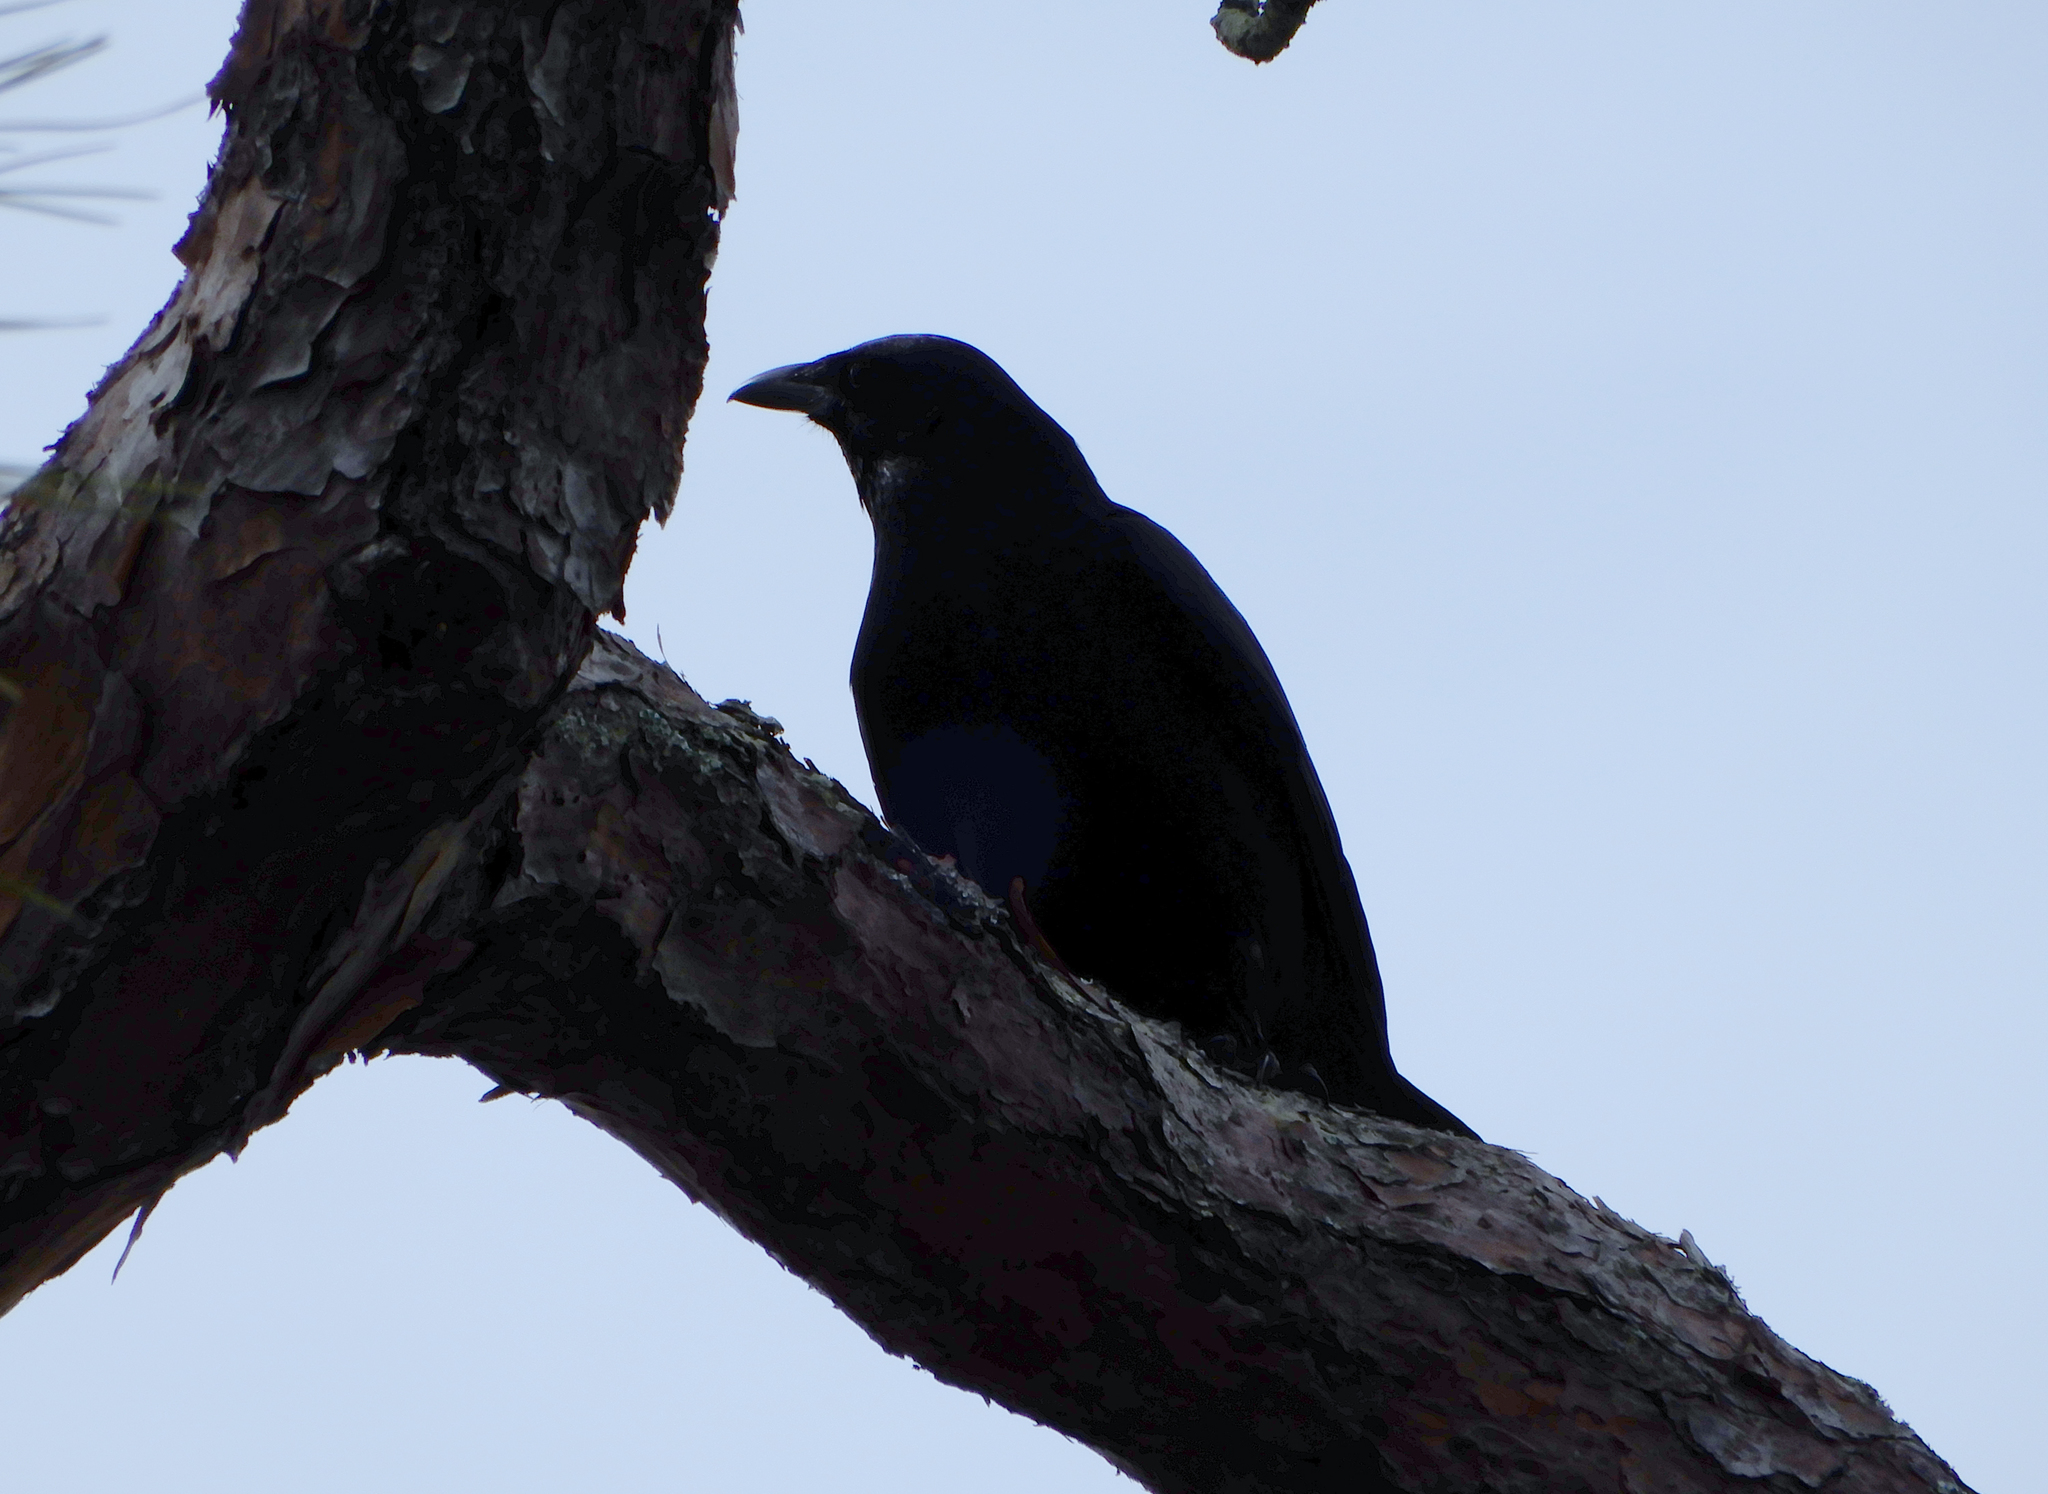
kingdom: Animalia
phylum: Chordata
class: Aves
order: Passeriformes
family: Corvidae
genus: Corvus
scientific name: Corvus brachyrhynchos
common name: American crow
